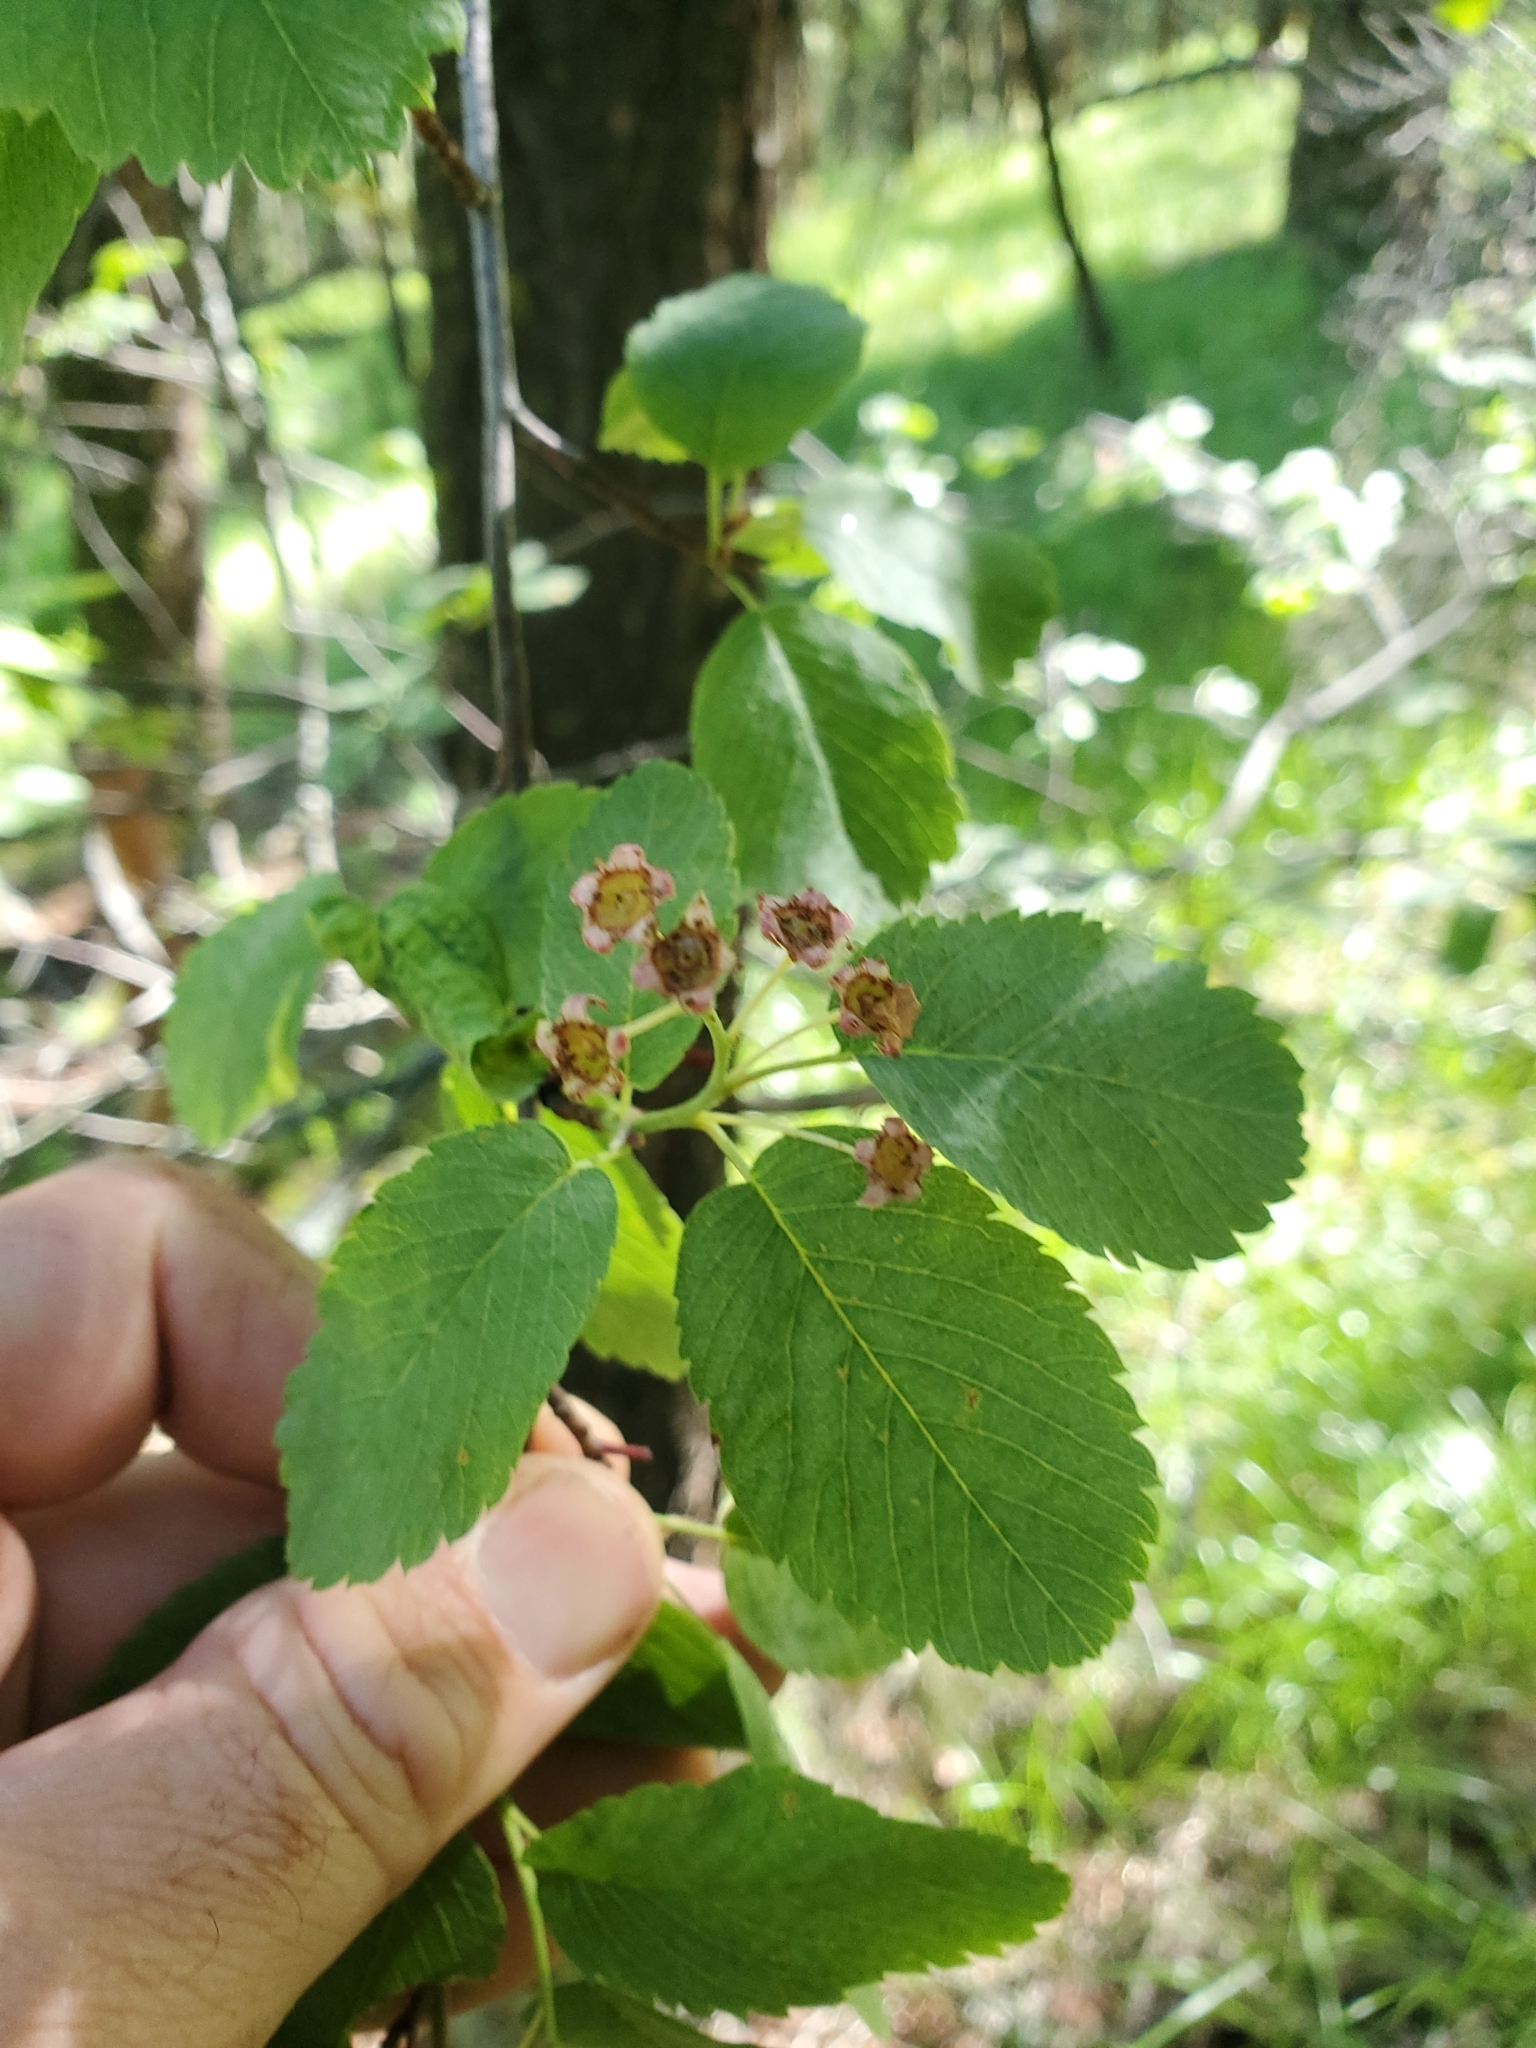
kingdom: Plantae
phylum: Tracheophyta
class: Magnoliopsida
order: Rosales
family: Rosaceae
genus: Amelanchier
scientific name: Amelanchier alnifolia
